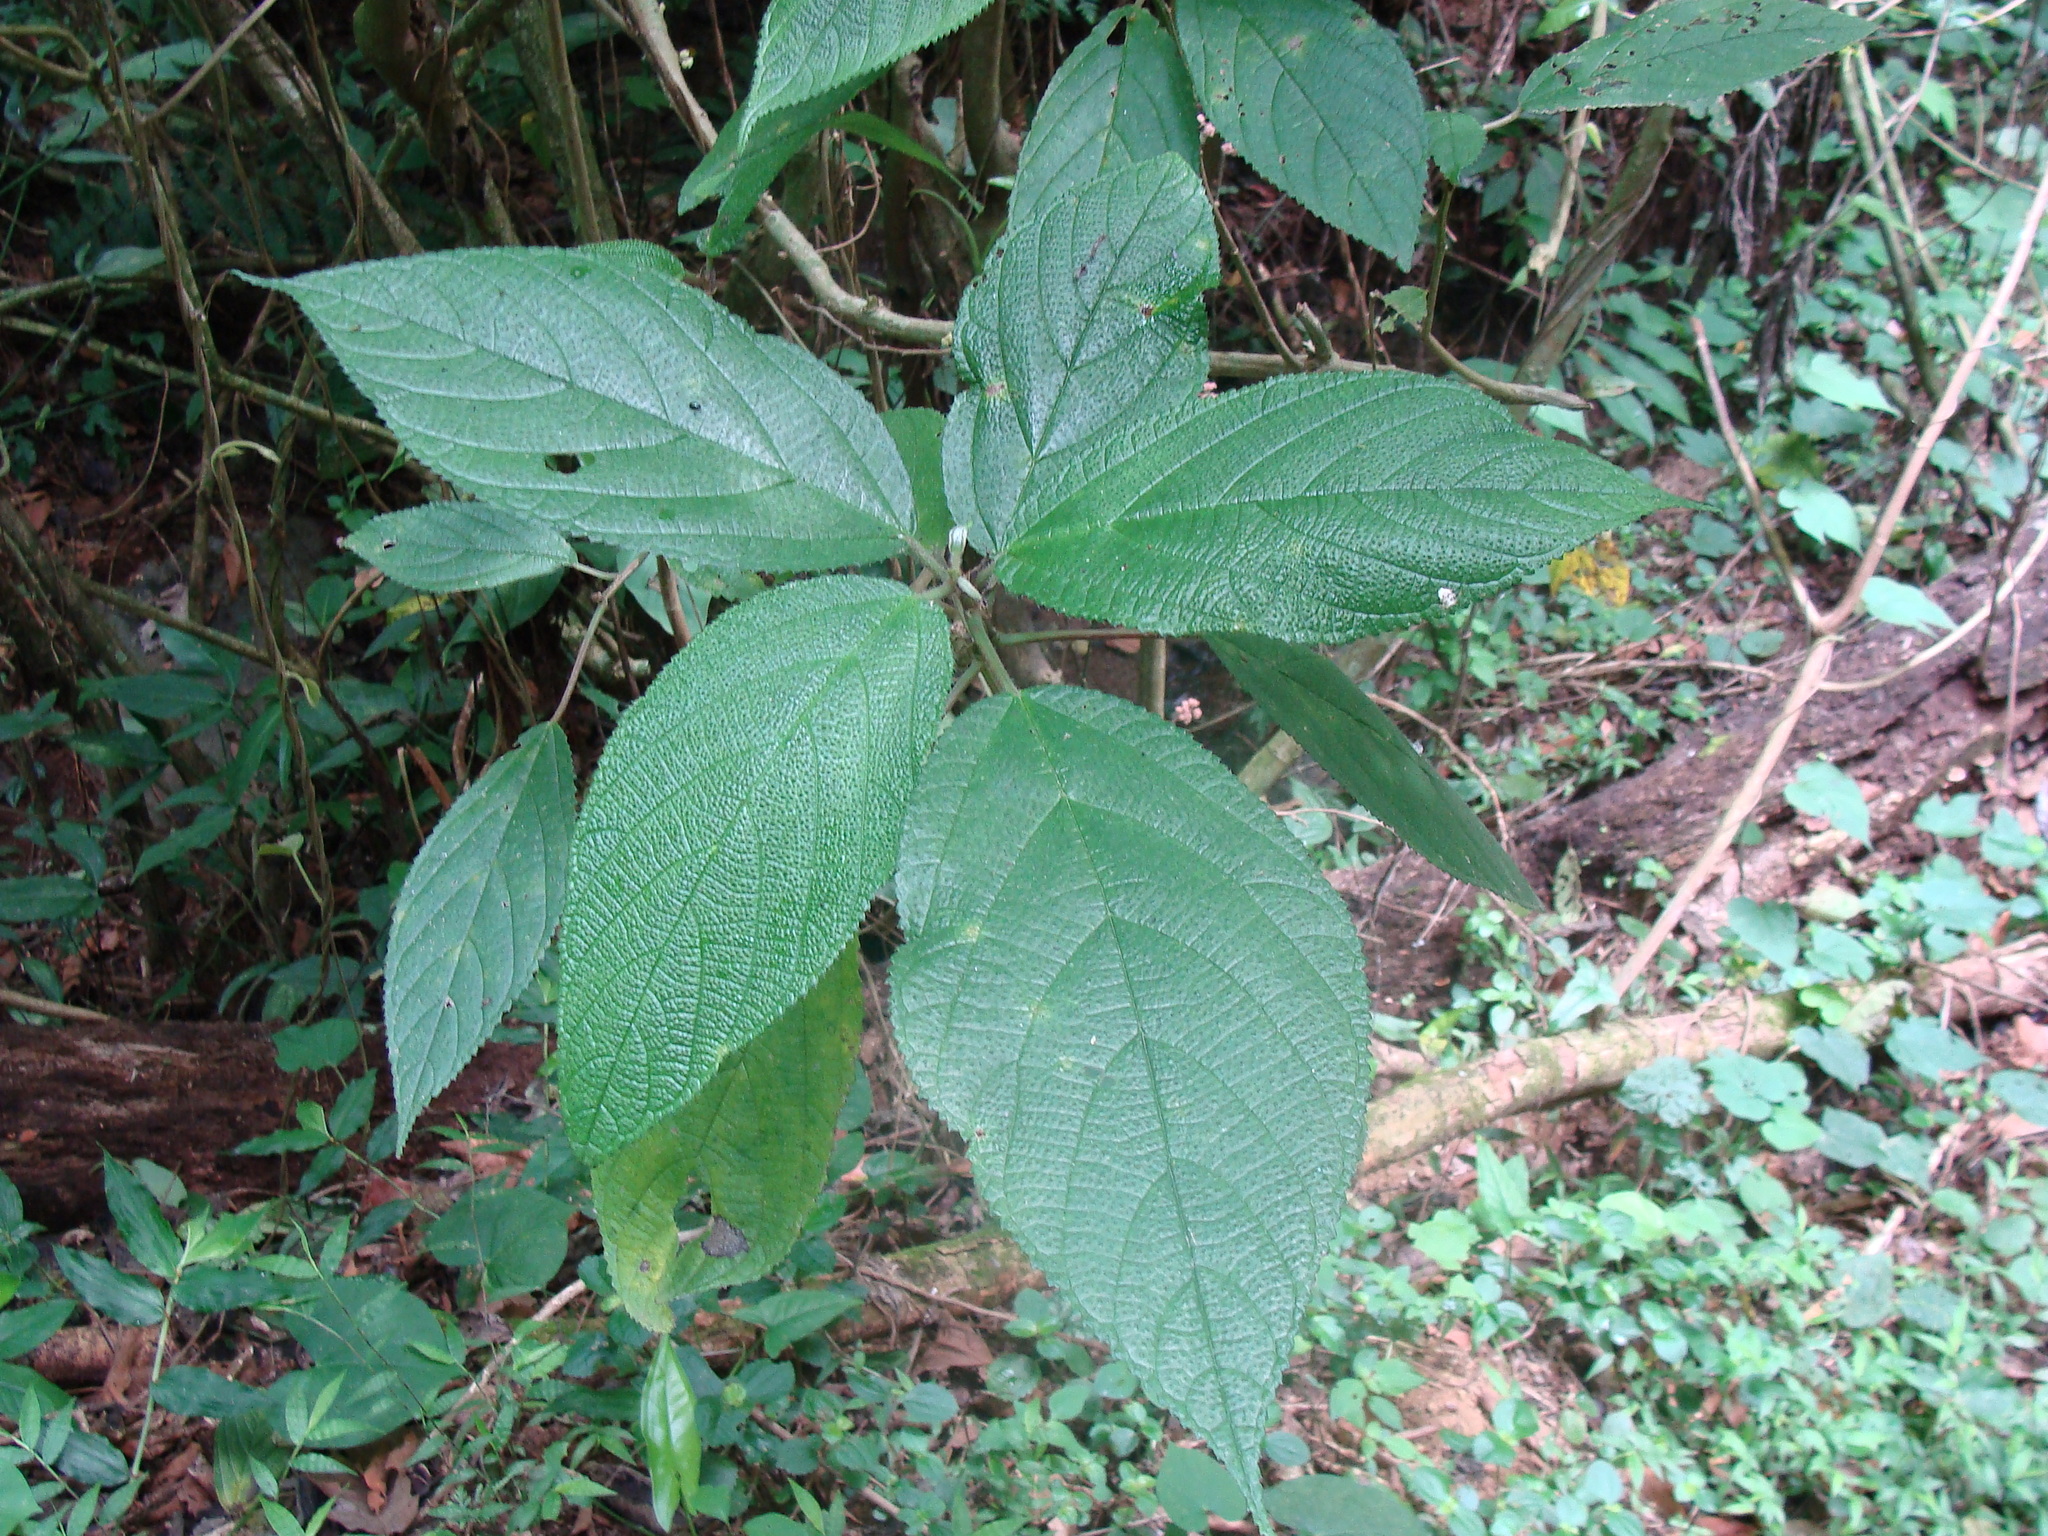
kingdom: Plantae
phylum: Tracheophyta
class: Magnoliopsida
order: Rosales
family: Urticaceae
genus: Urera
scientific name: Urera elata
